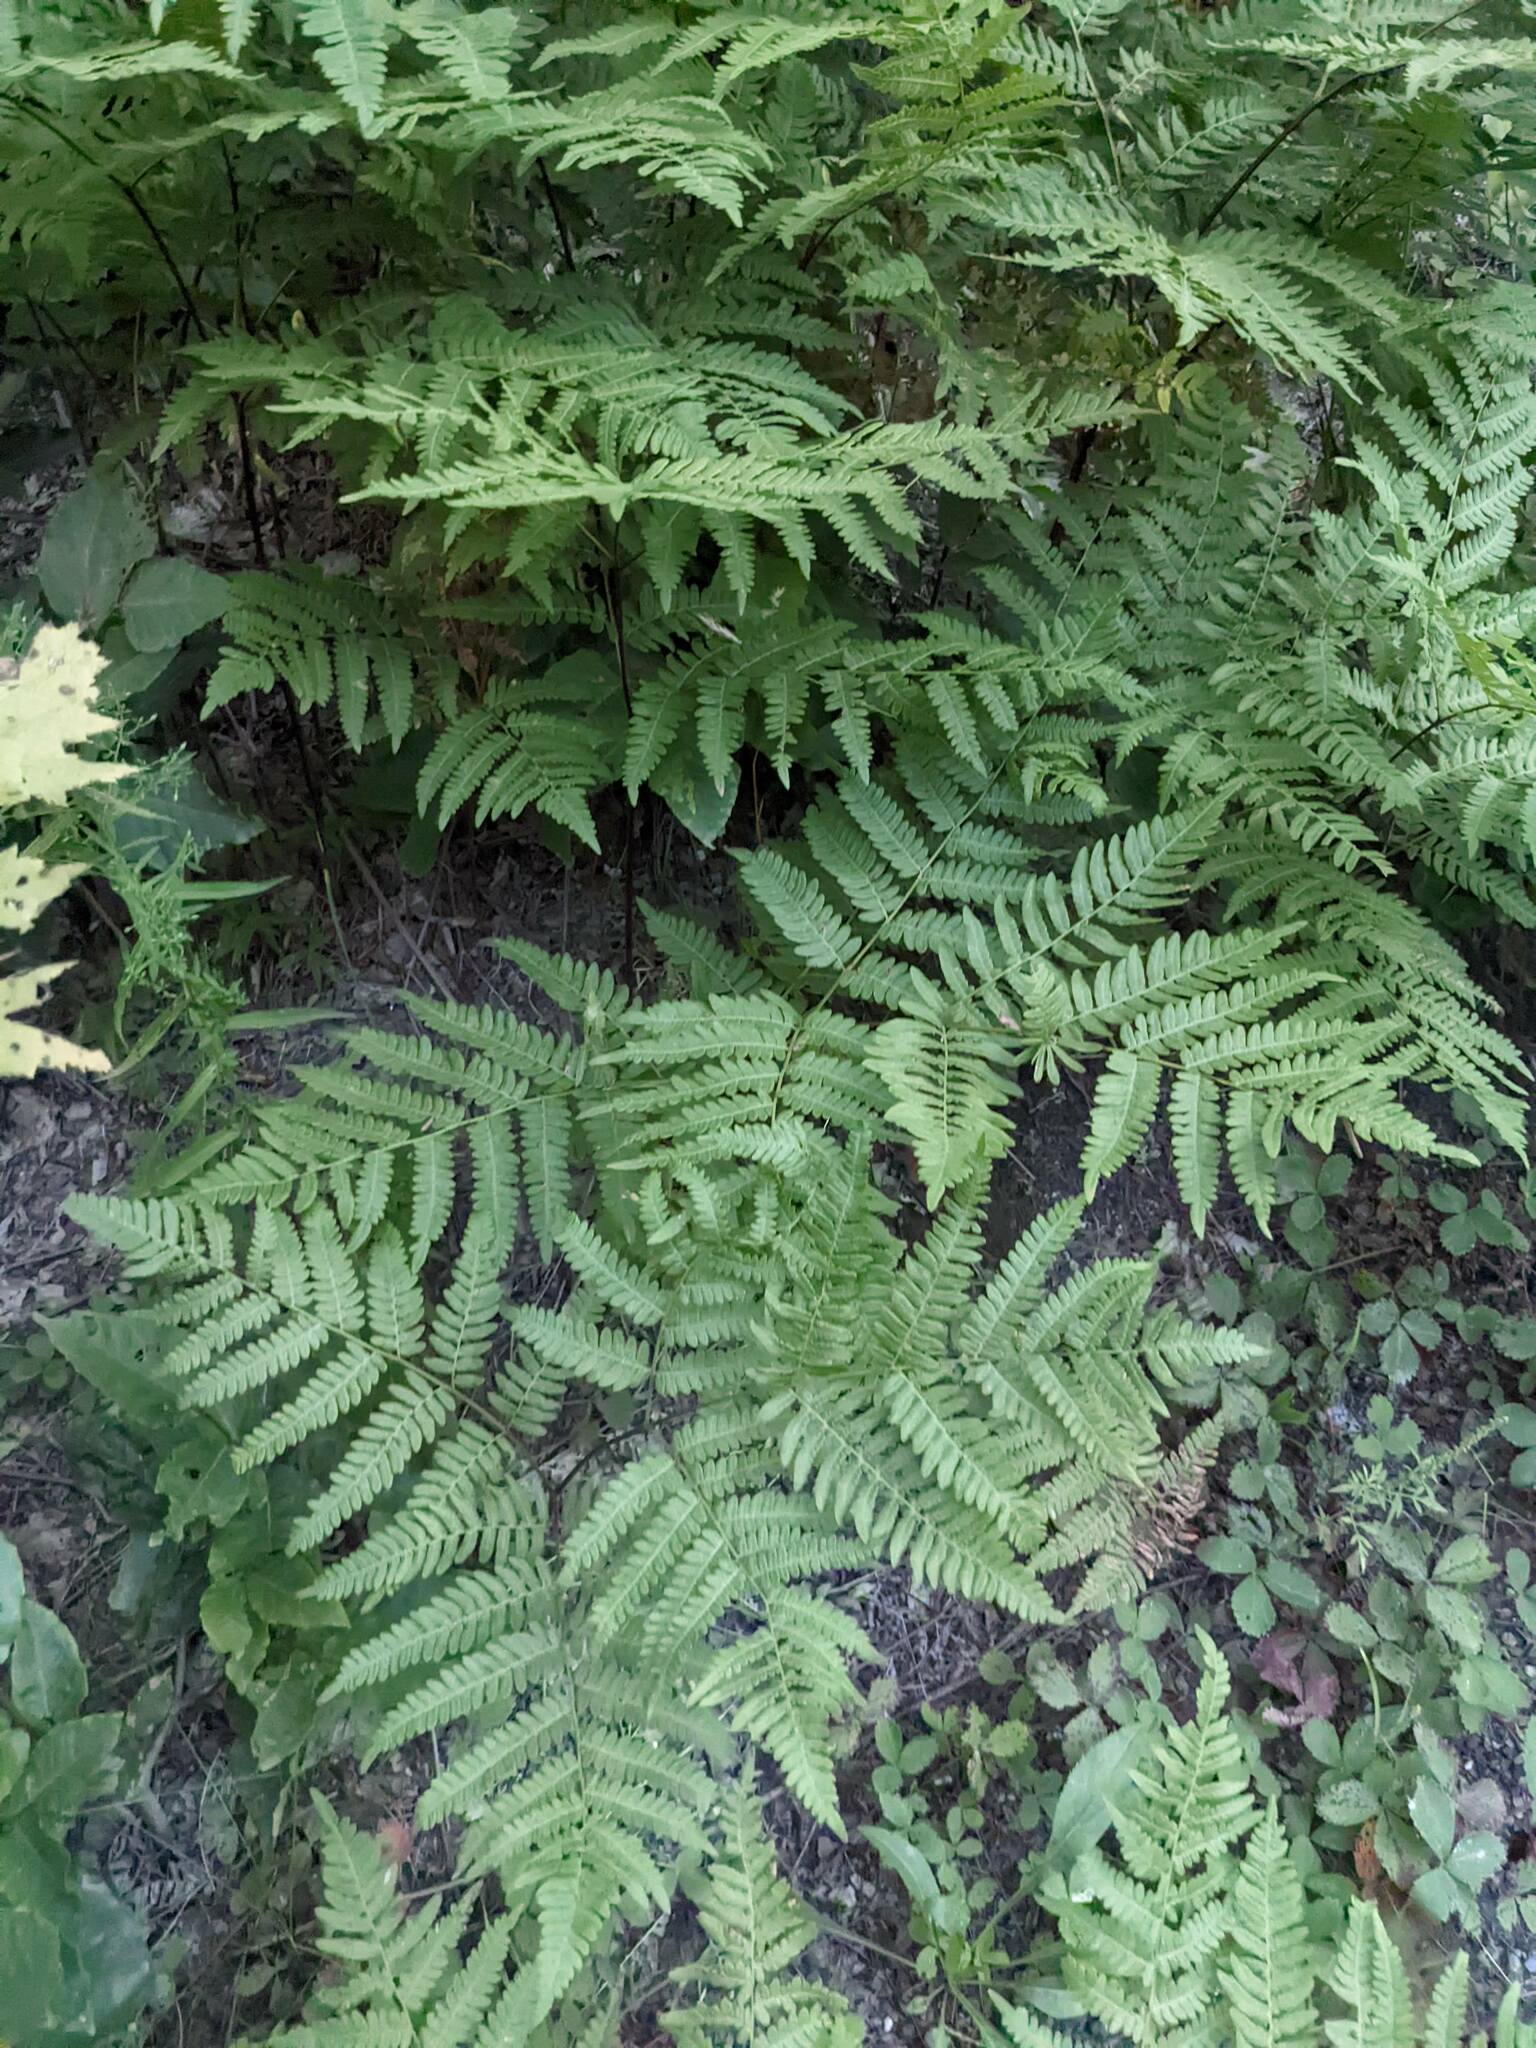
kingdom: Plantae
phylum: Tracheophyta
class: Polypodiopsida
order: Polypodiales
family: Dennstaedtiaceae
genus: Pteridium
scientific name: Pteridium aquilinum
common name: Bracken
